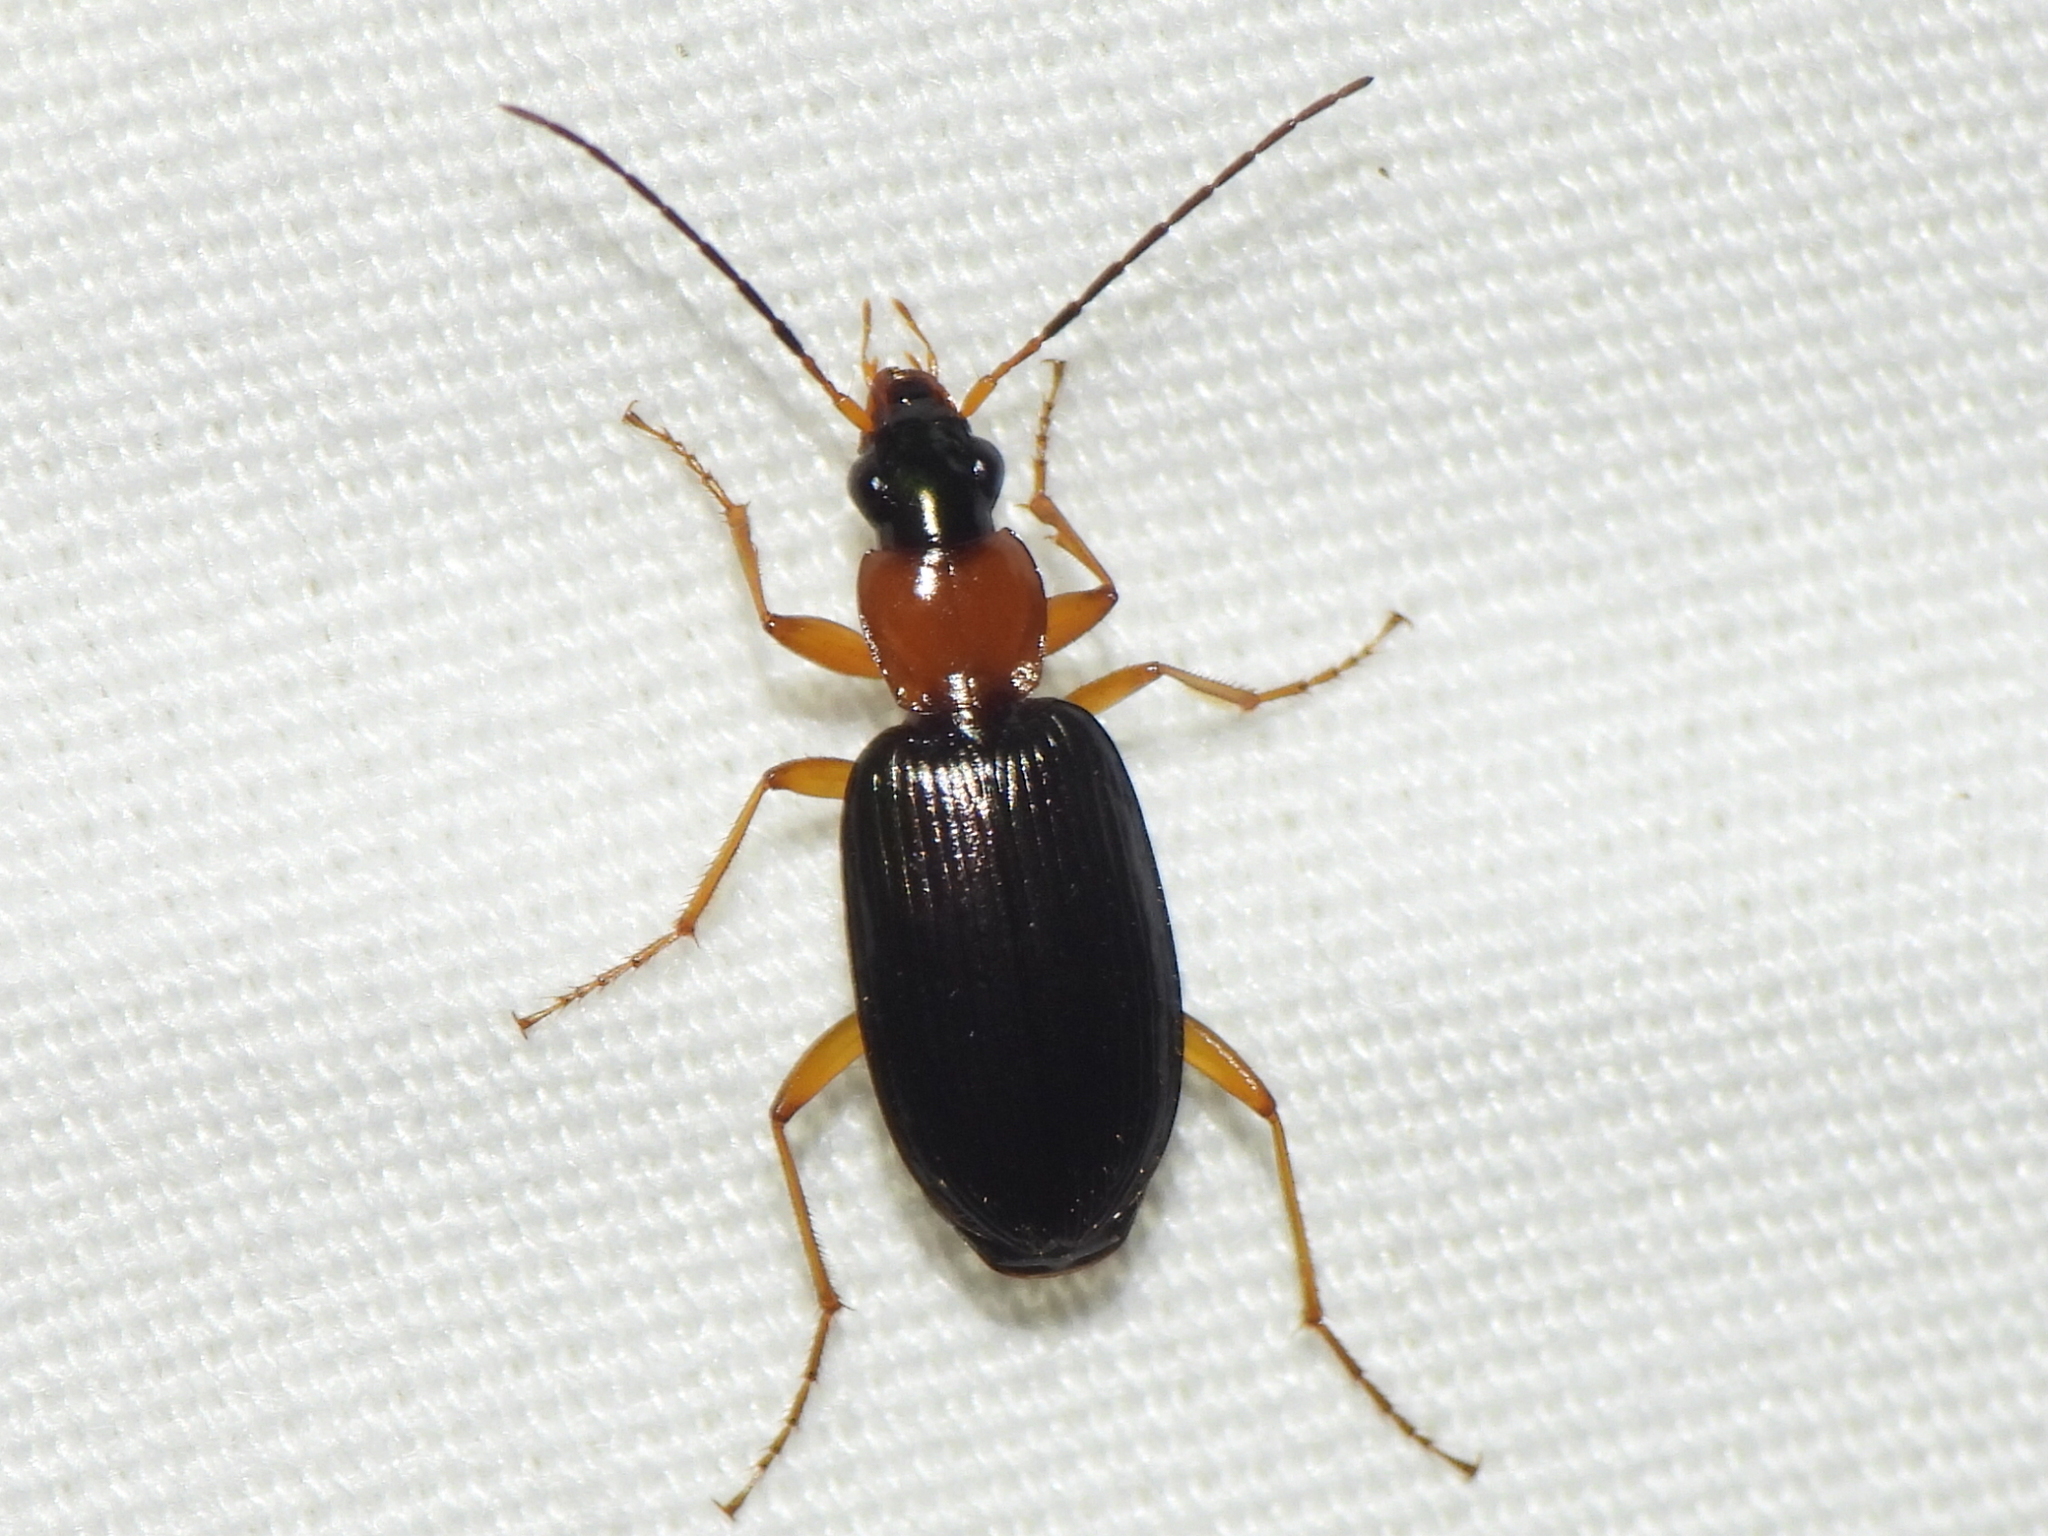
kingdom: Animalia
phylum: Arthropoda
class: Insecta
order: Coleoptera
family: Carabidae
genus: Agonum
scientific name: Agonum decorum
